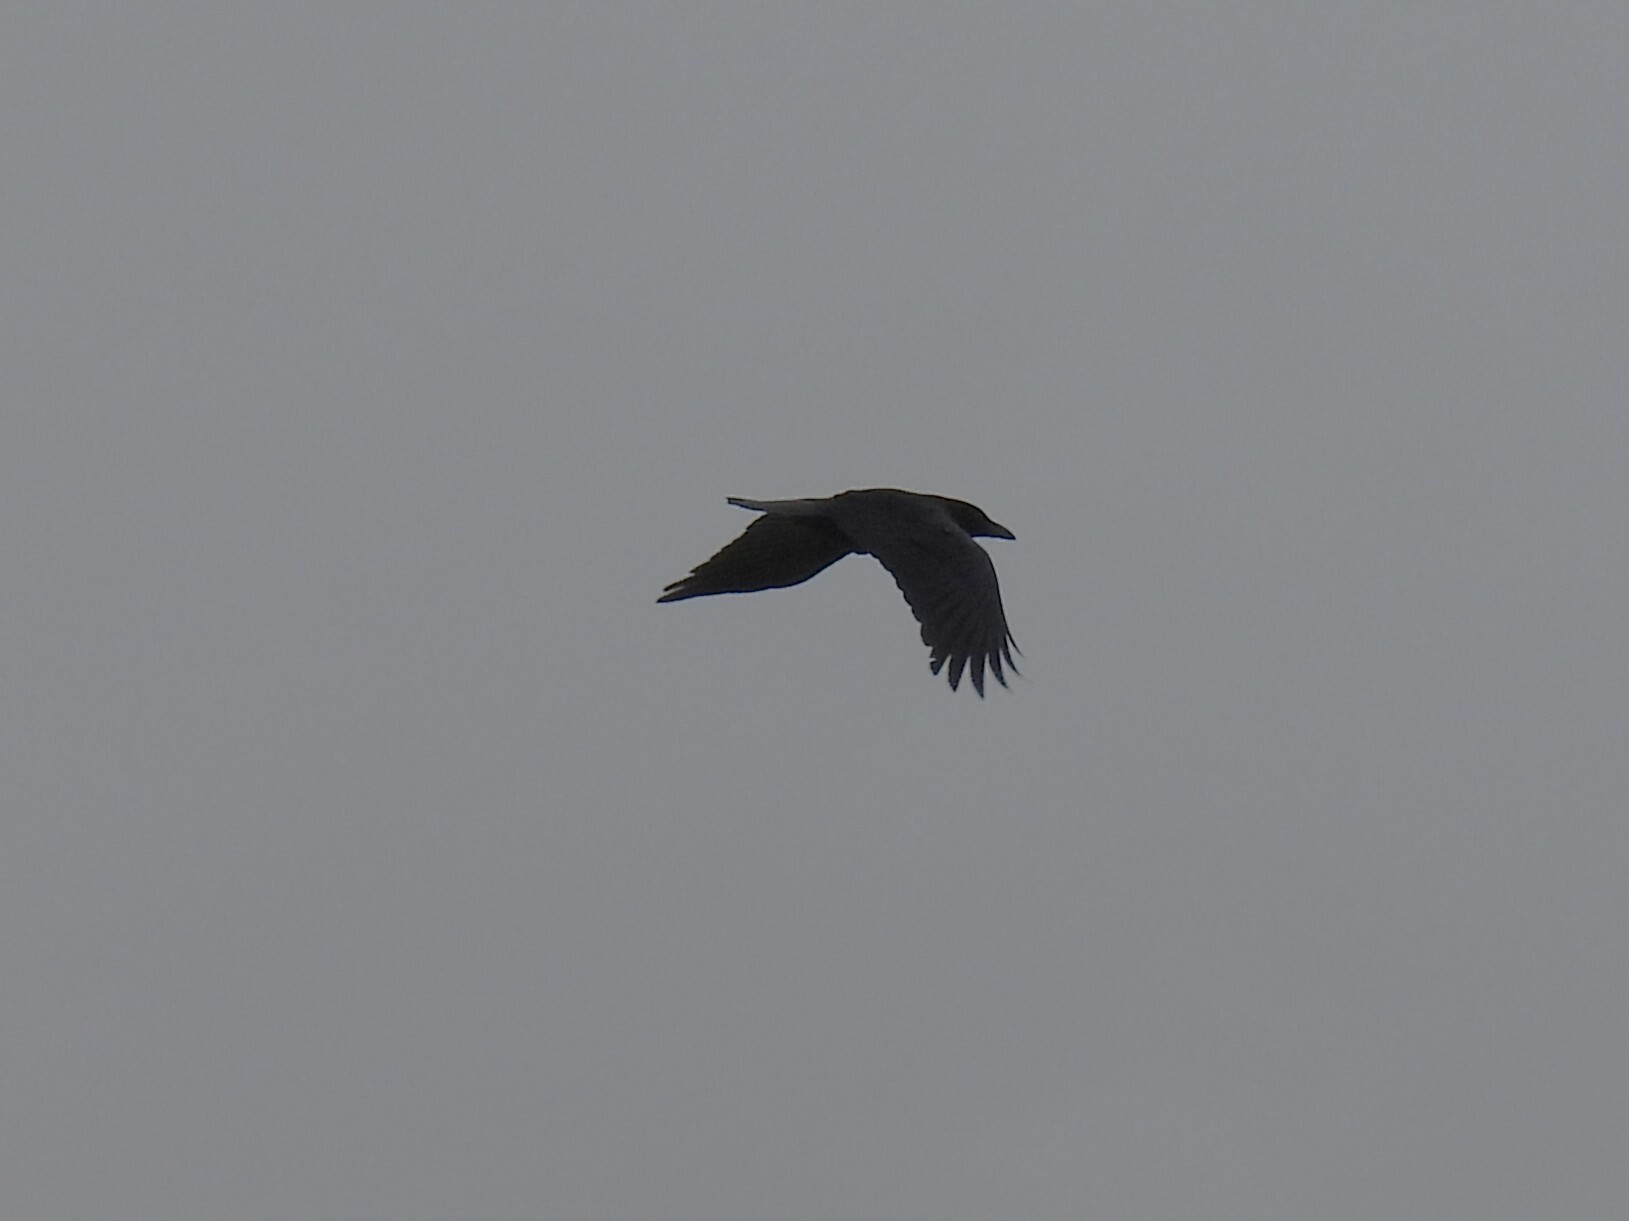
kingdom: Animalia
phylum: Chordata
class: Aves
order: Passeriformes
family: Corvidae
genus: Corvus
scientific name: Corvus corax
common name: Common raven
